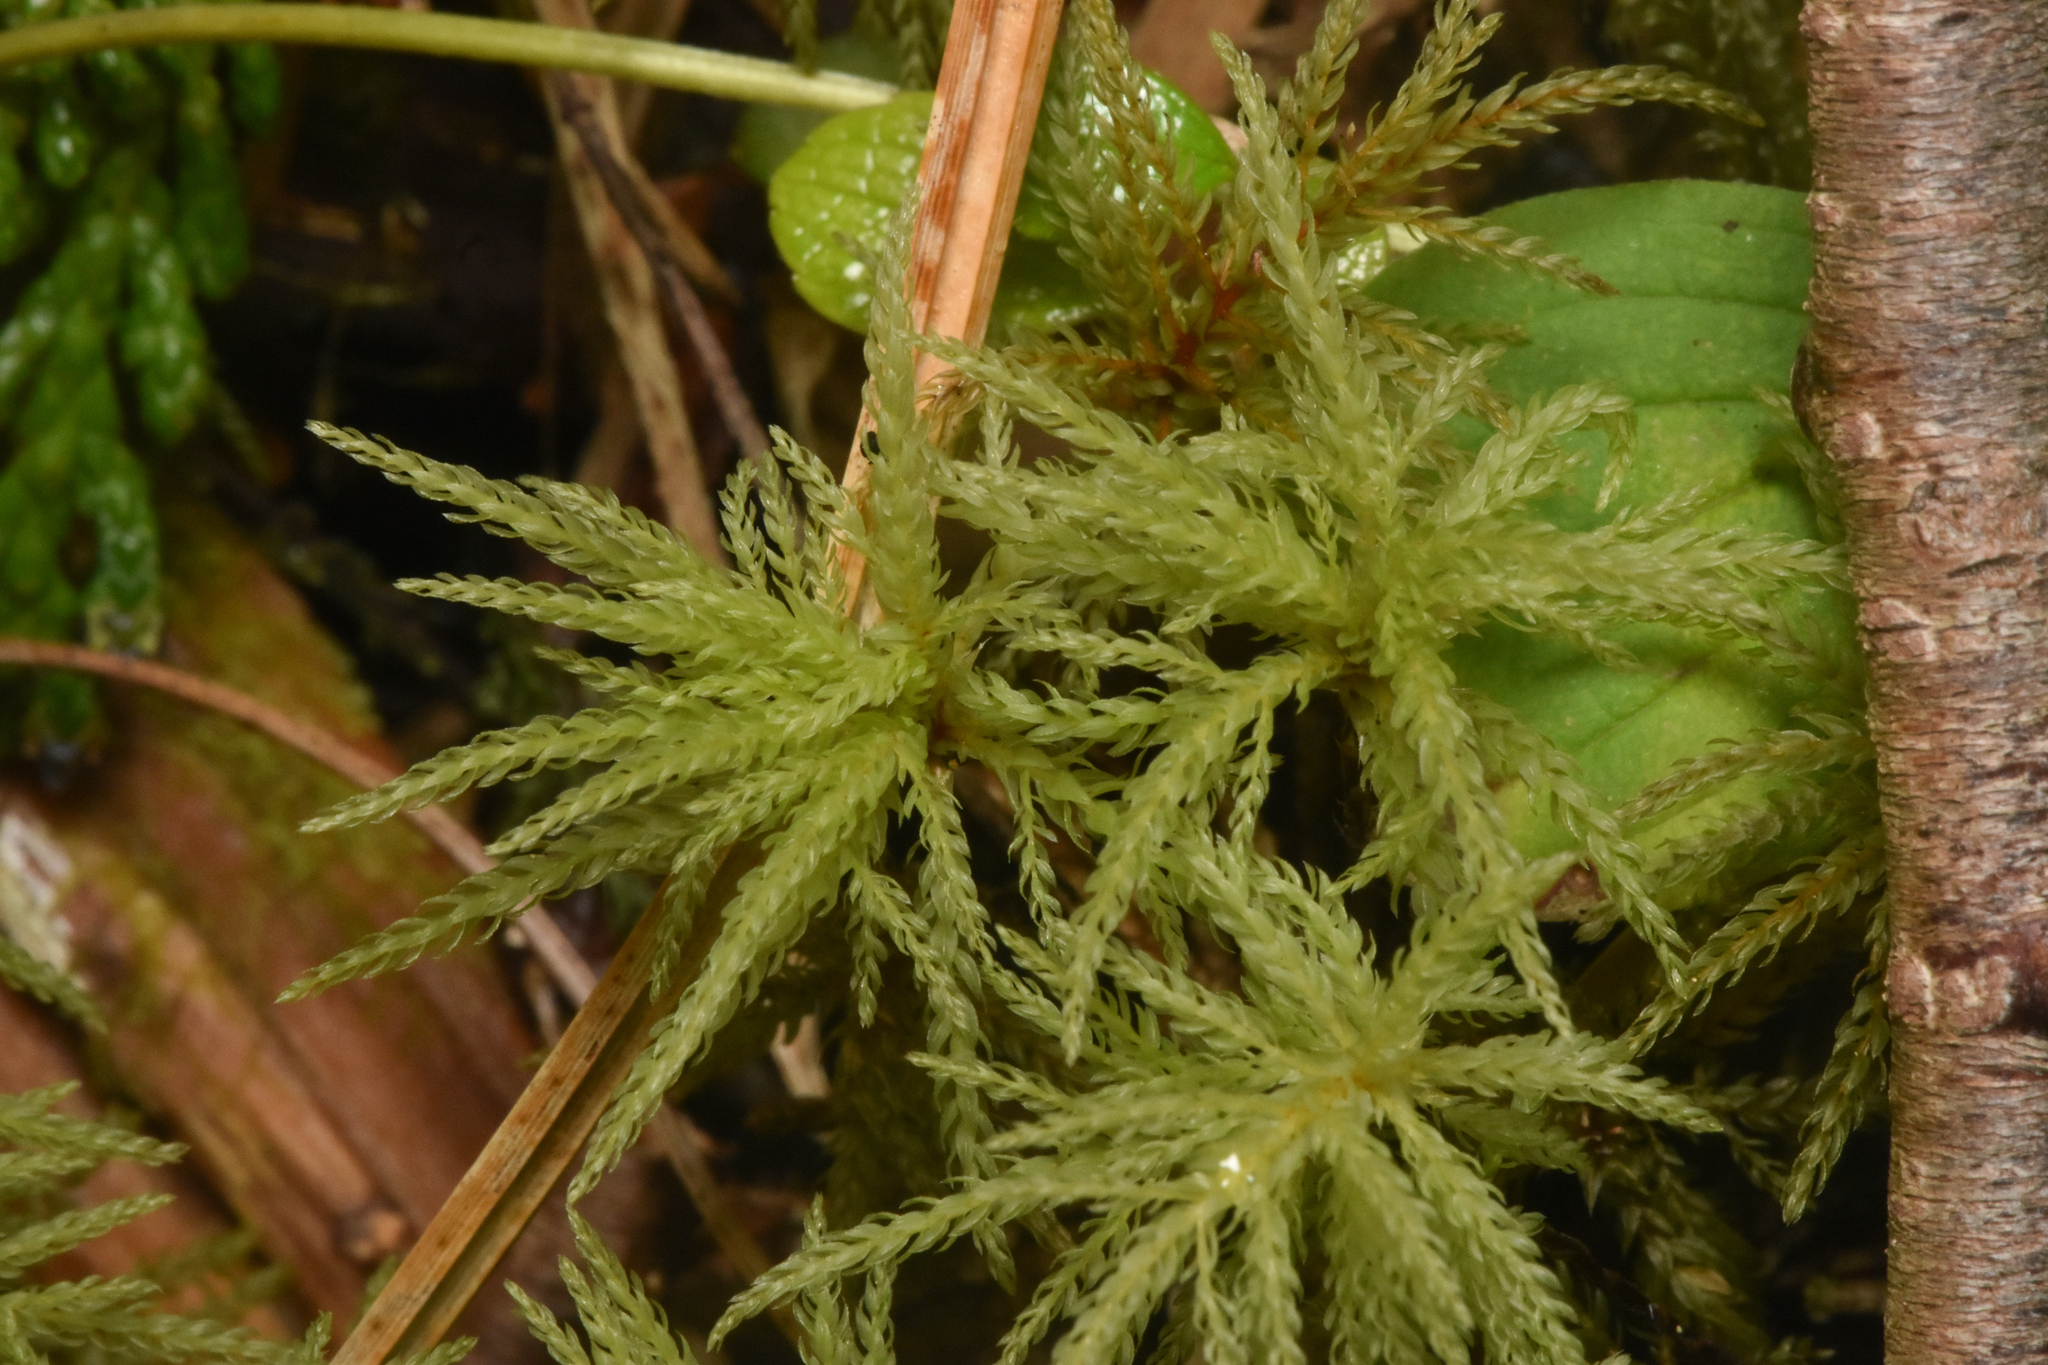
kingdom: Plantae
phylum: Bryophyta
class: Bryopsida
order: Bryales
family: Mniaceae
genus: Leucolepis
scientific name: Leucolepis acanthoneura
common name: Leucolepis umbrella moss
